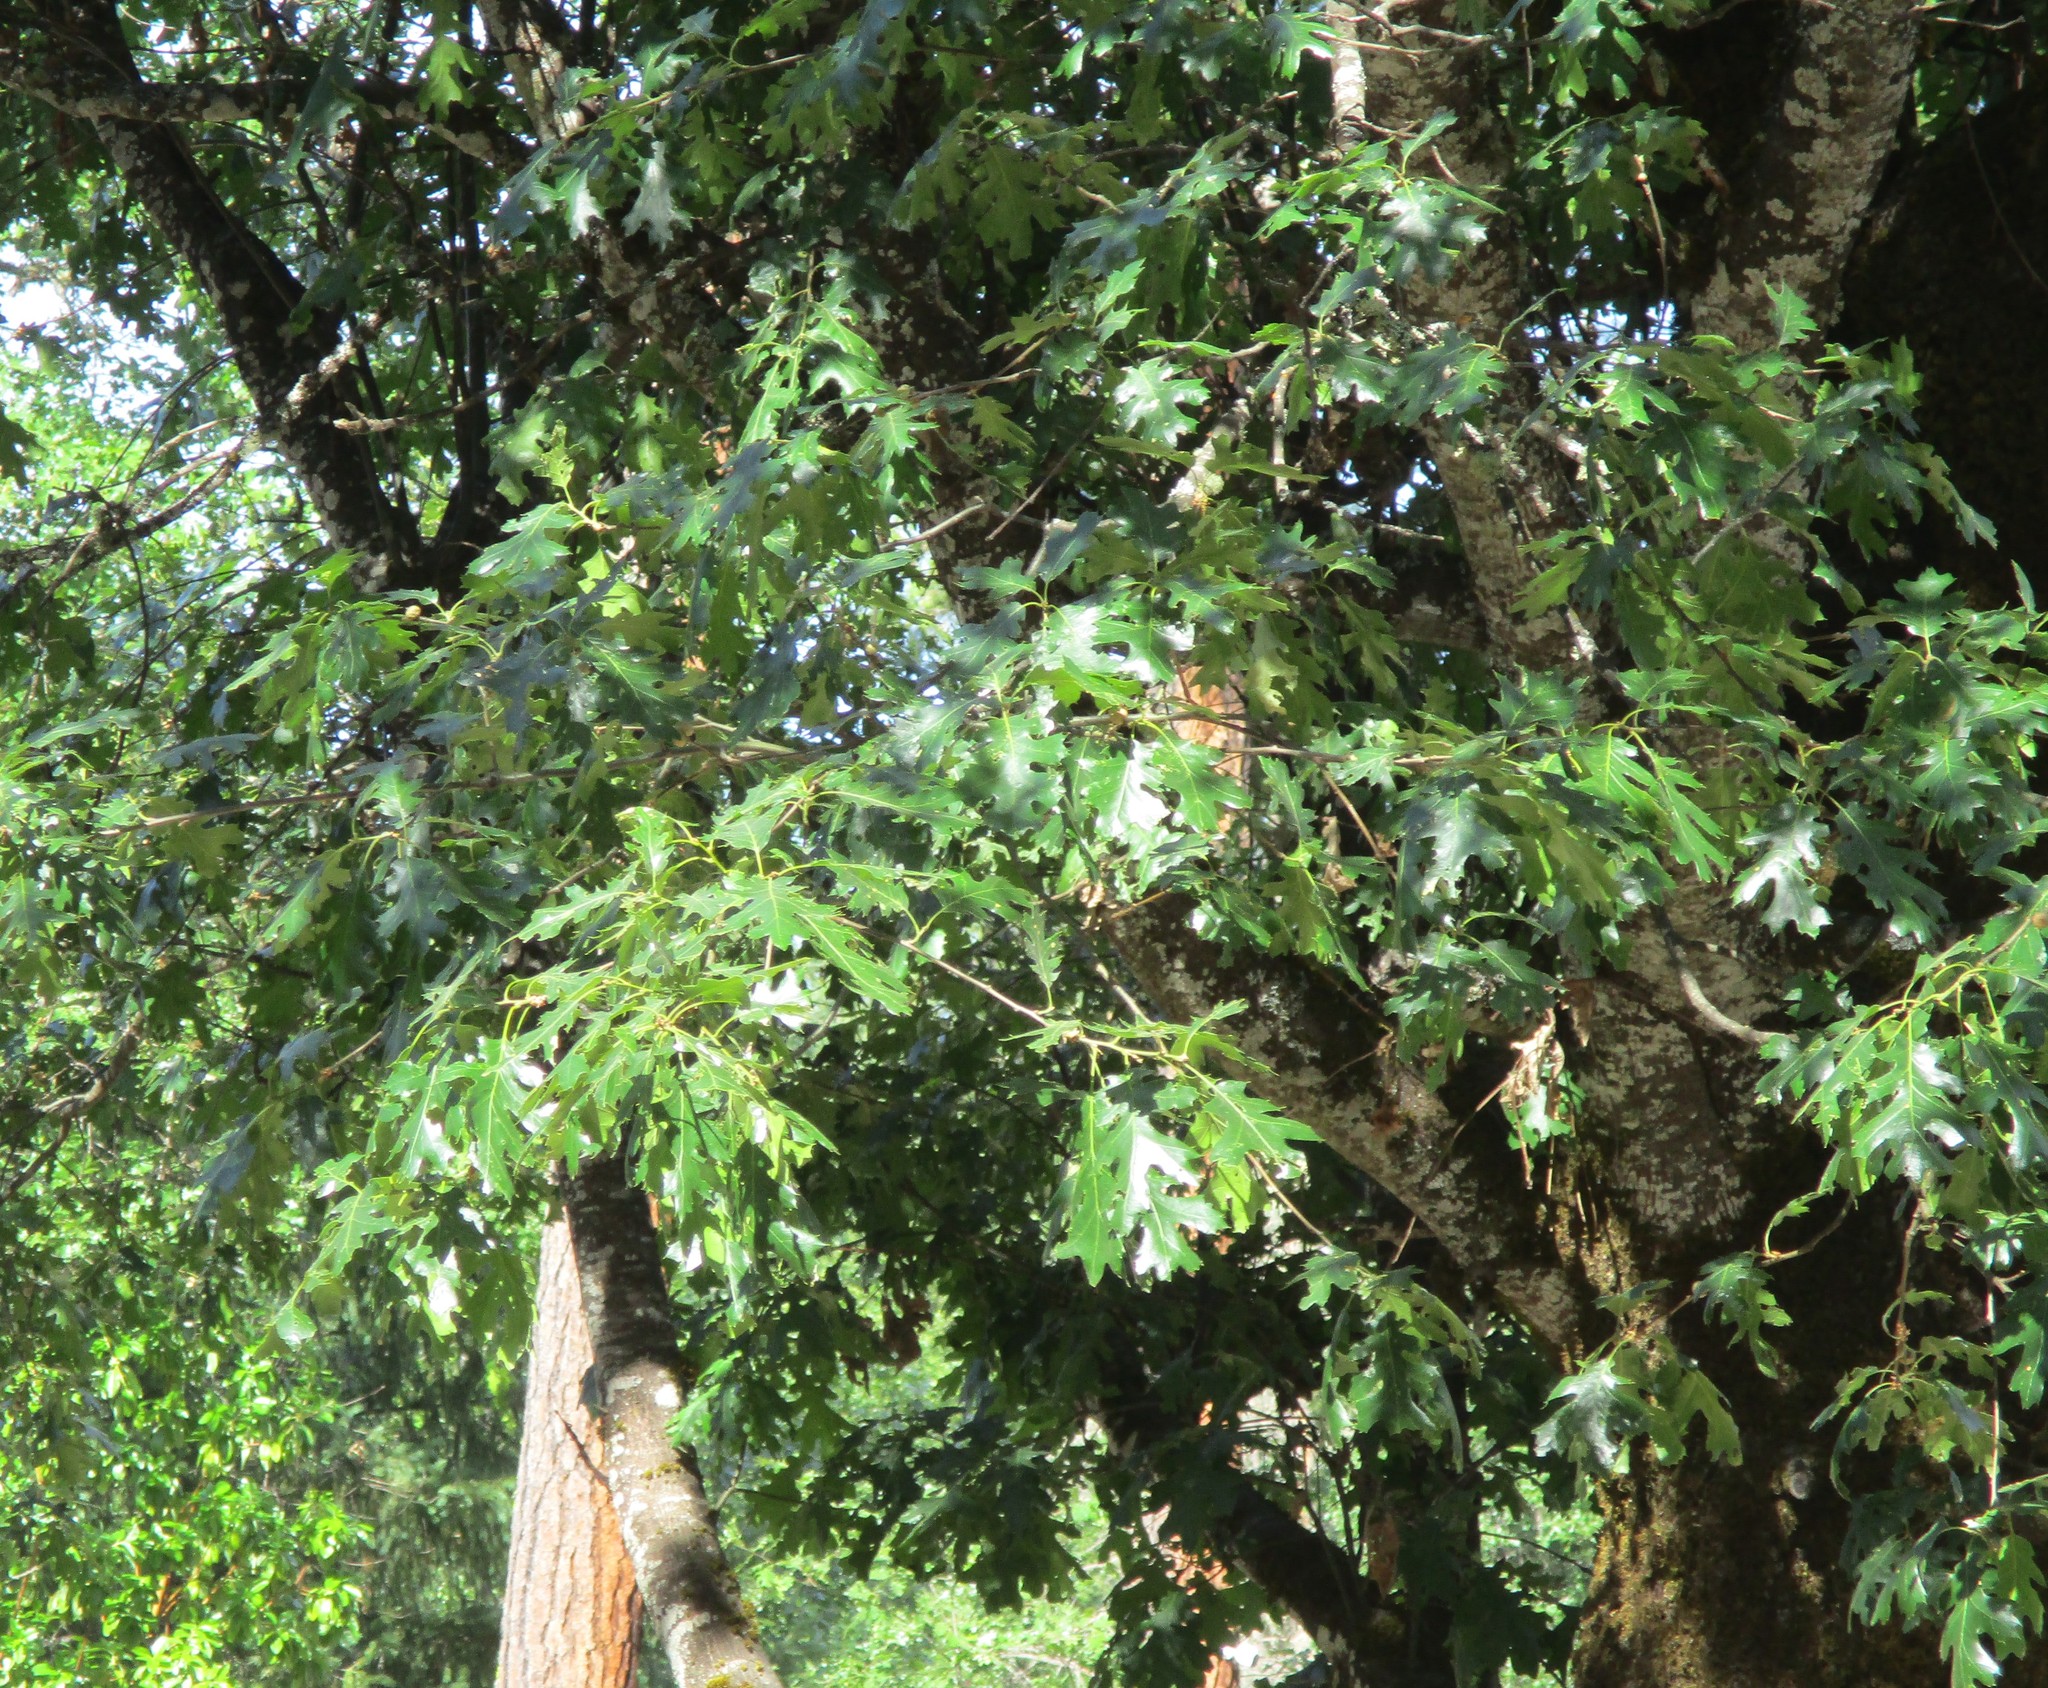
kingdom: Plantae
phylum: Tracheophyta
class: Magnoliopsida
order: Fagales
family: Fagaceae
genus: Quercus
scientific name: Quercus kelloggii
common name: California black oak
